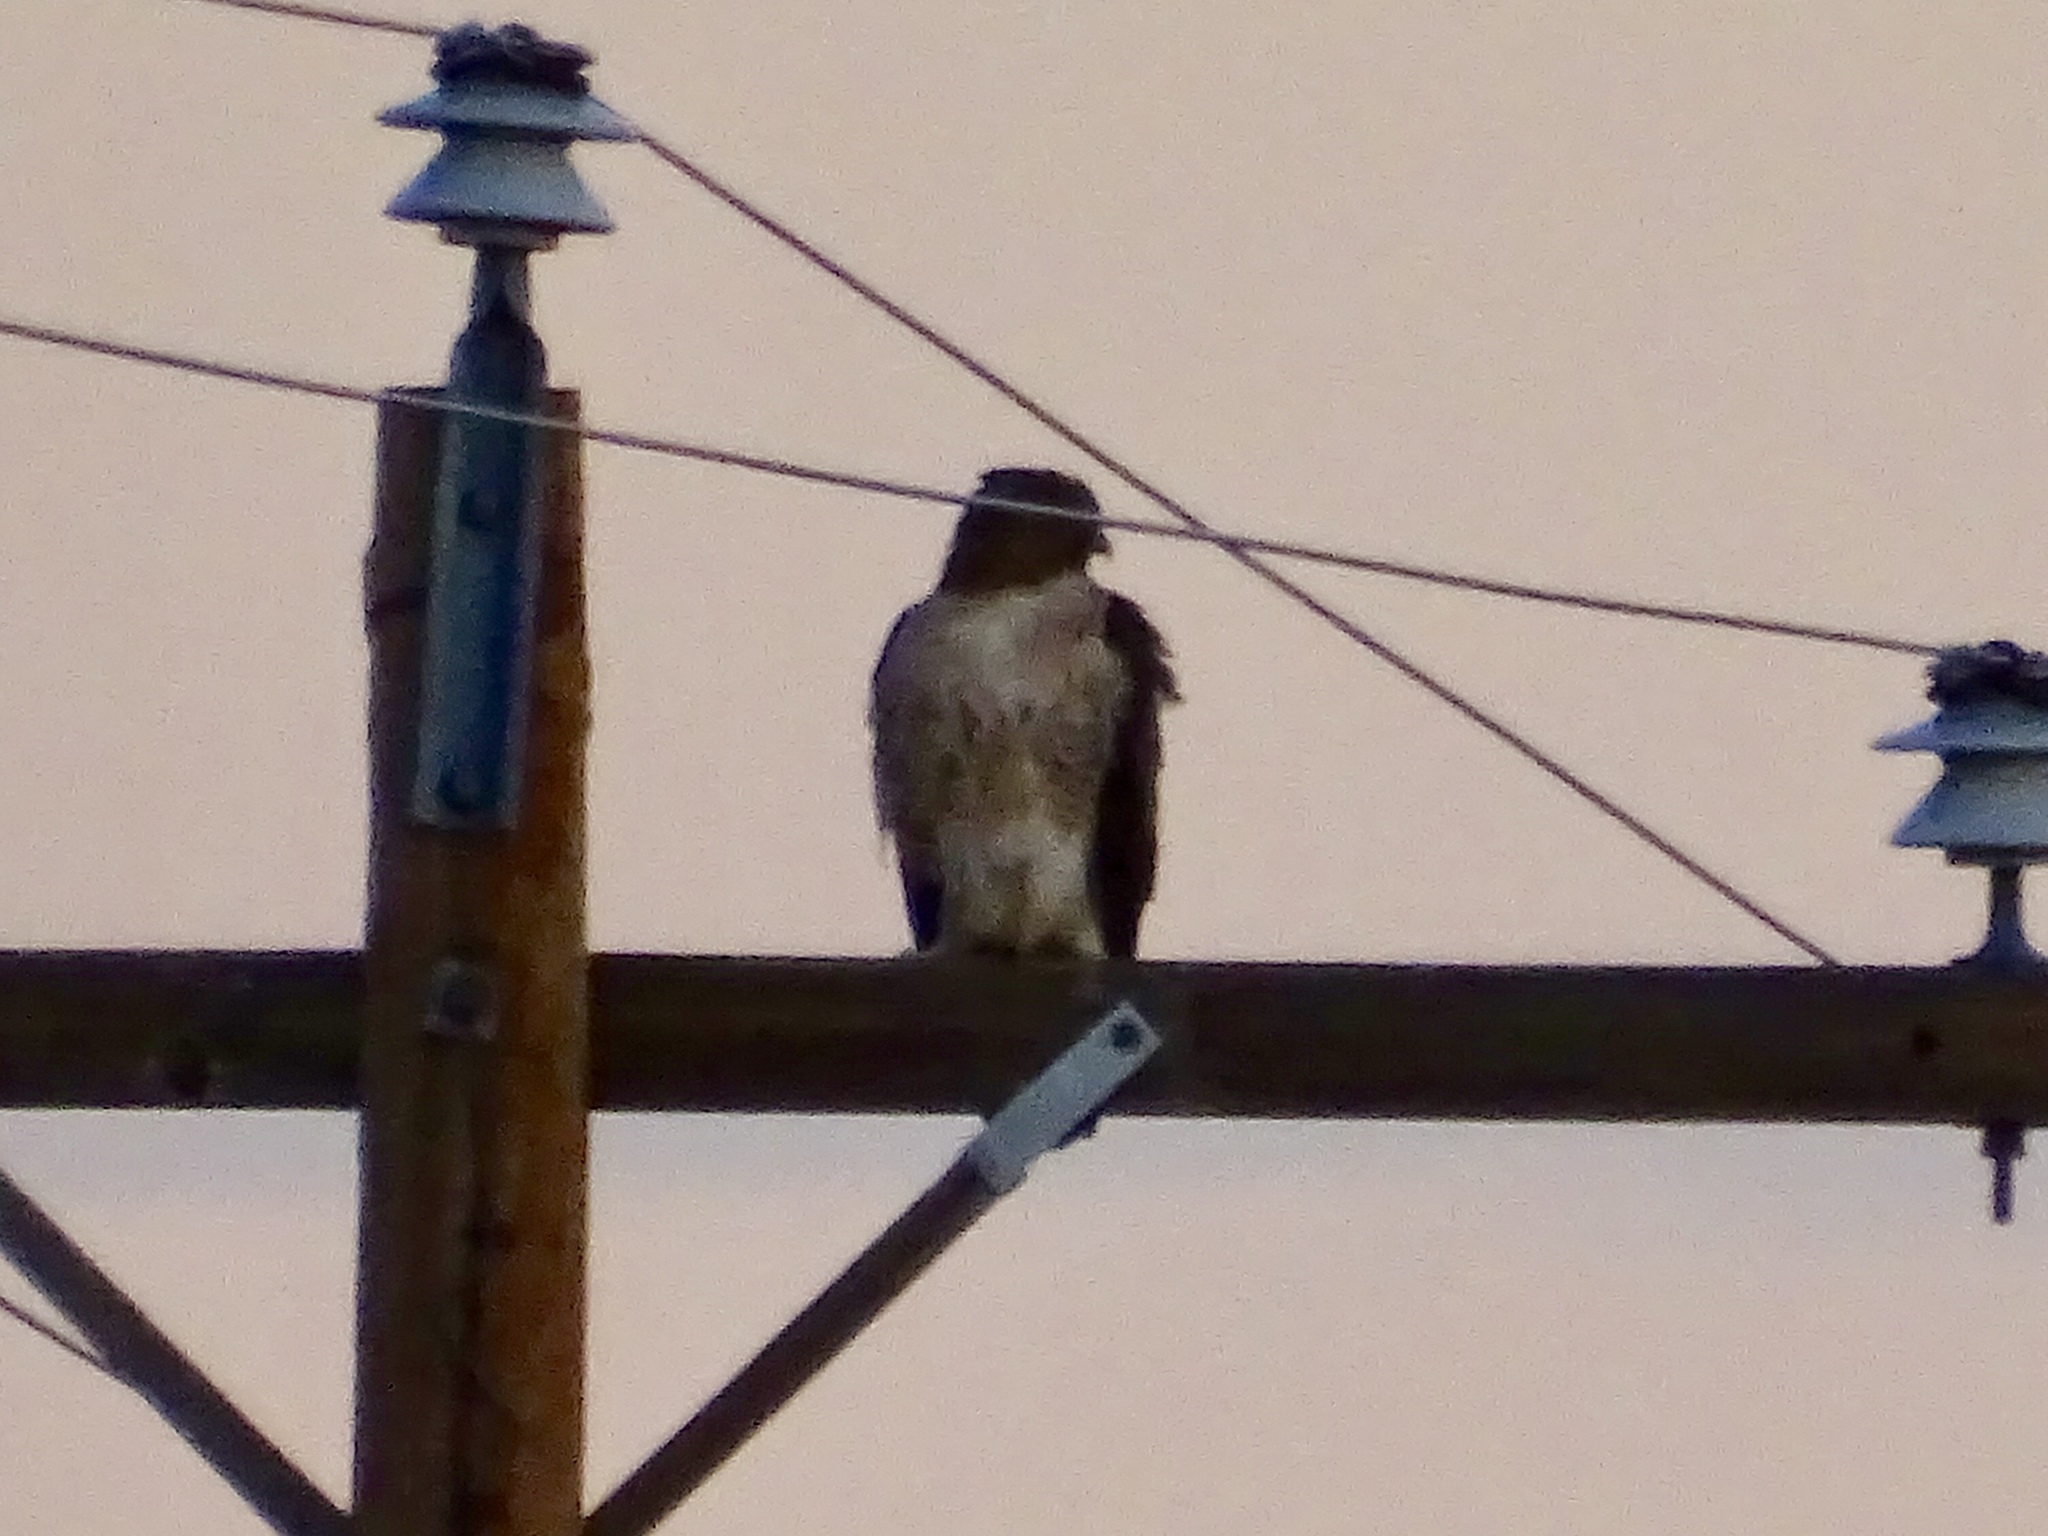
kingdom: Animalia
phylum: Chordata
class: Aves
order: Accipitriformes
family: Accipitridae
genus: Buteo
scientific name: Buteo jamaicensis
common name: Red-tailed hawk
